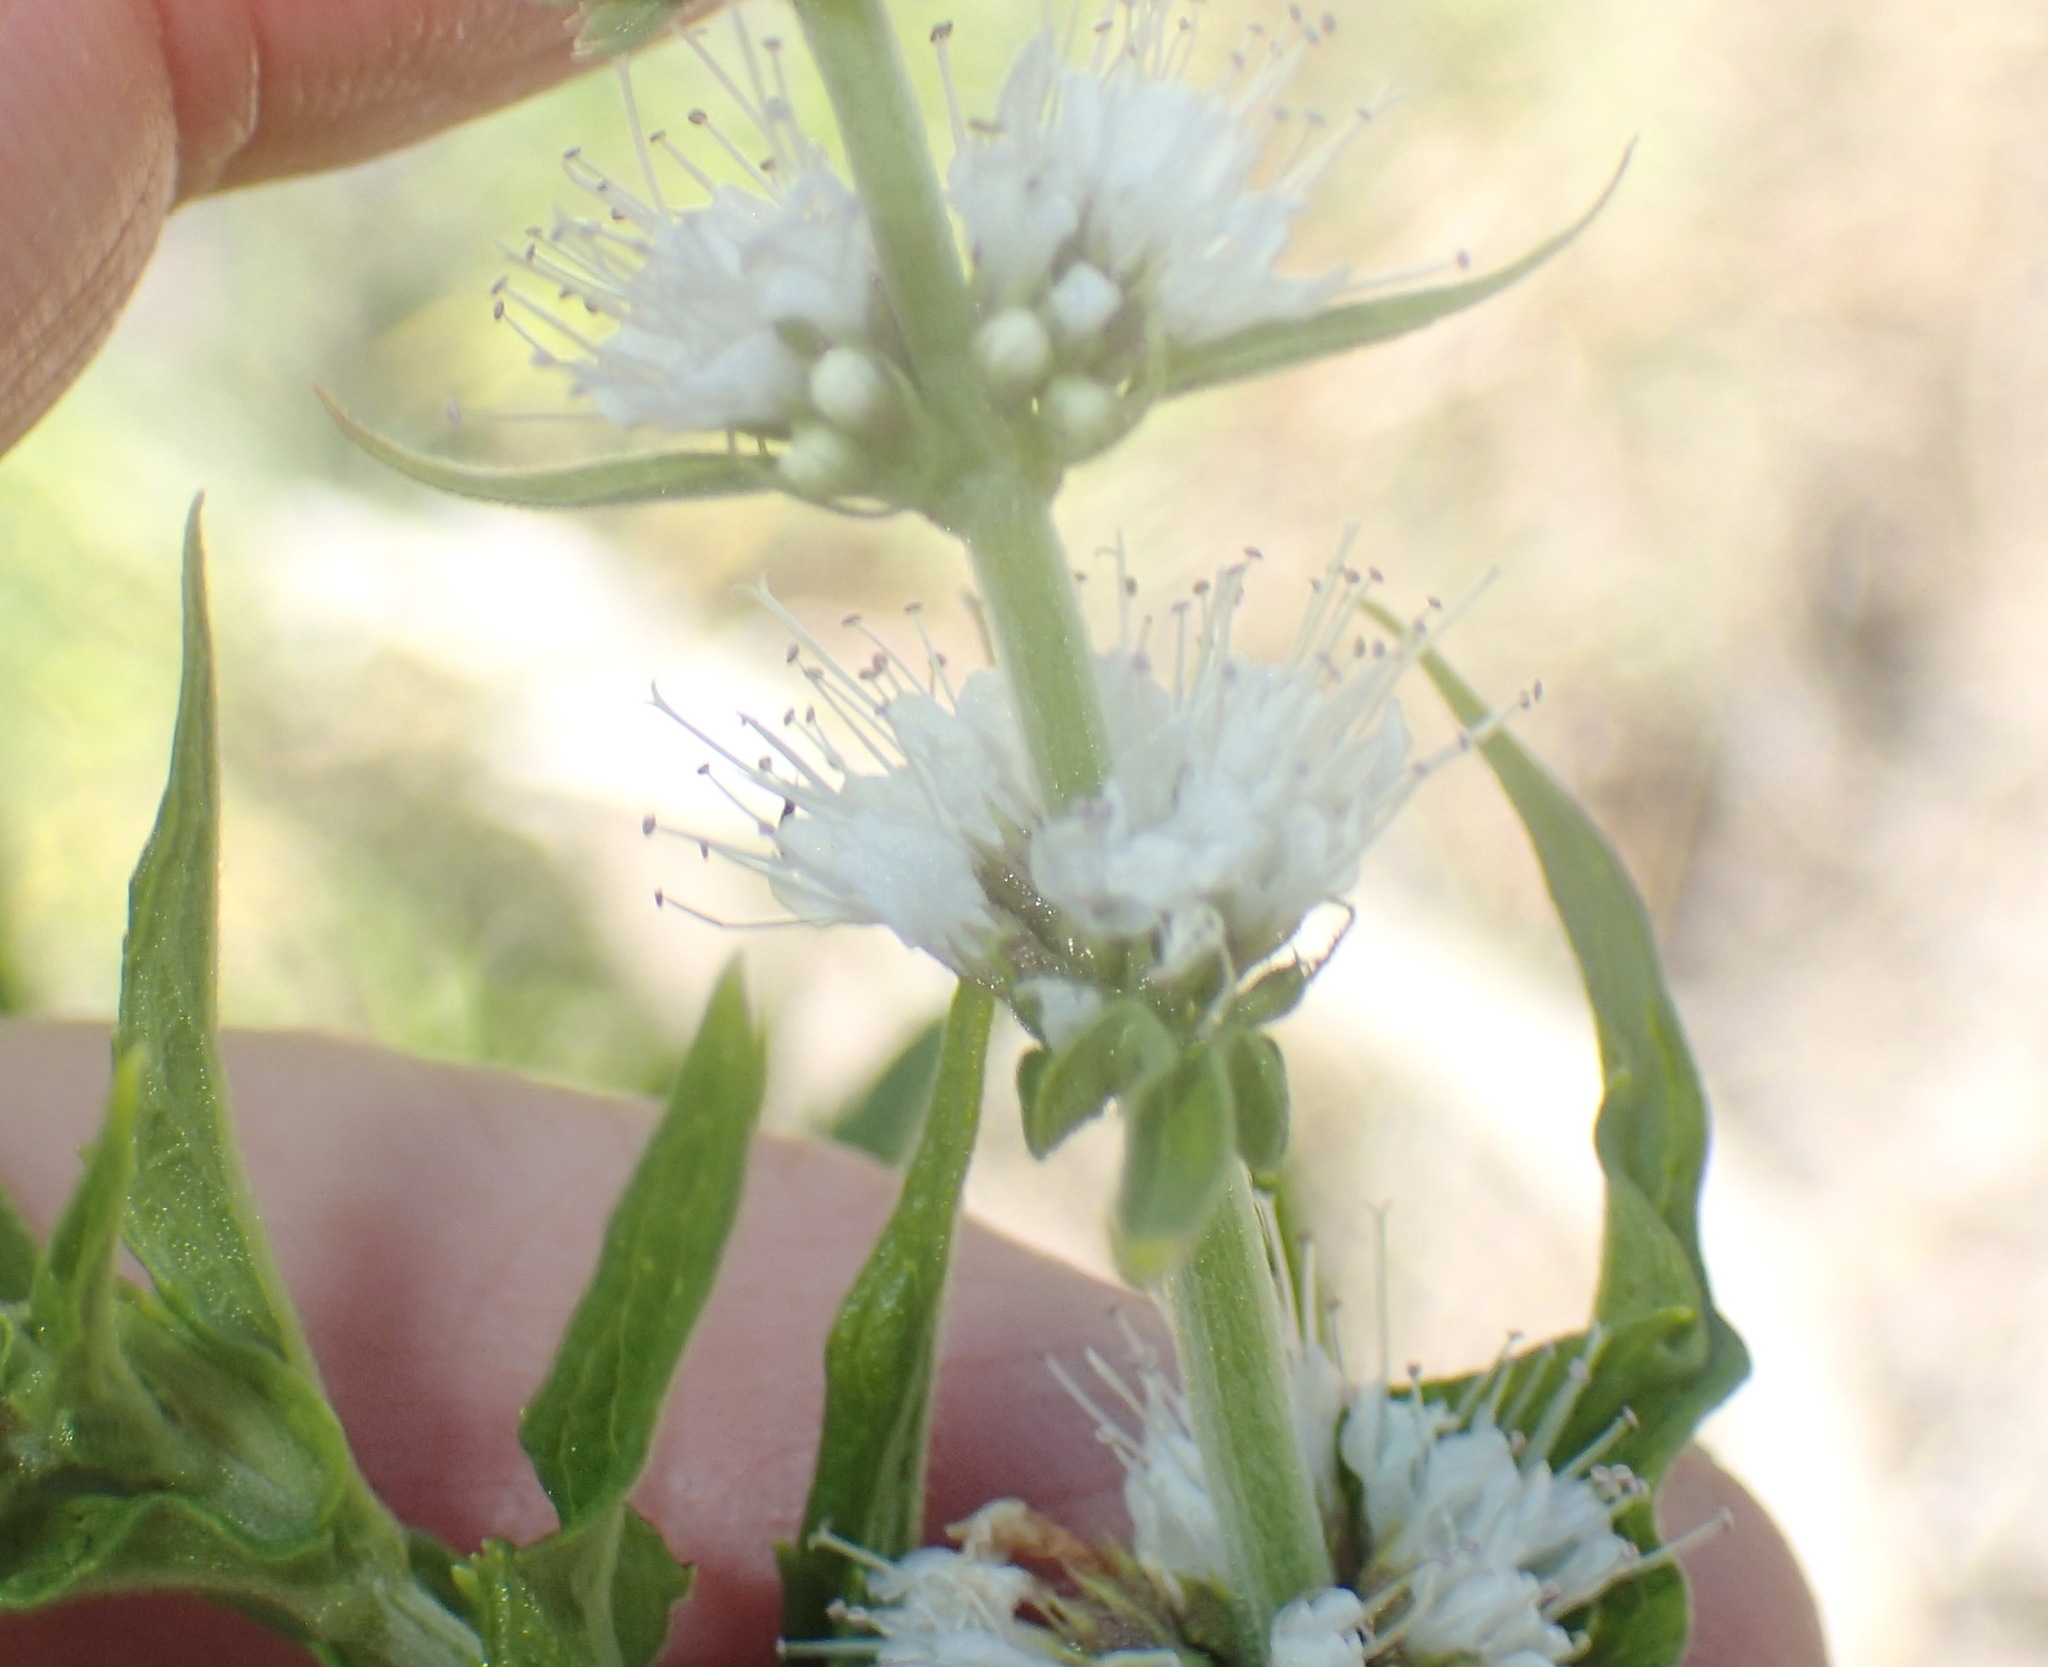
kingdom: Plantae
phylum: Tracheophyta
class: Magnoliopsida
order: Lamiales
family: Lamiaceae
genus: Mentha
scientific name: Mentha longifolia
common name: Horse mint
